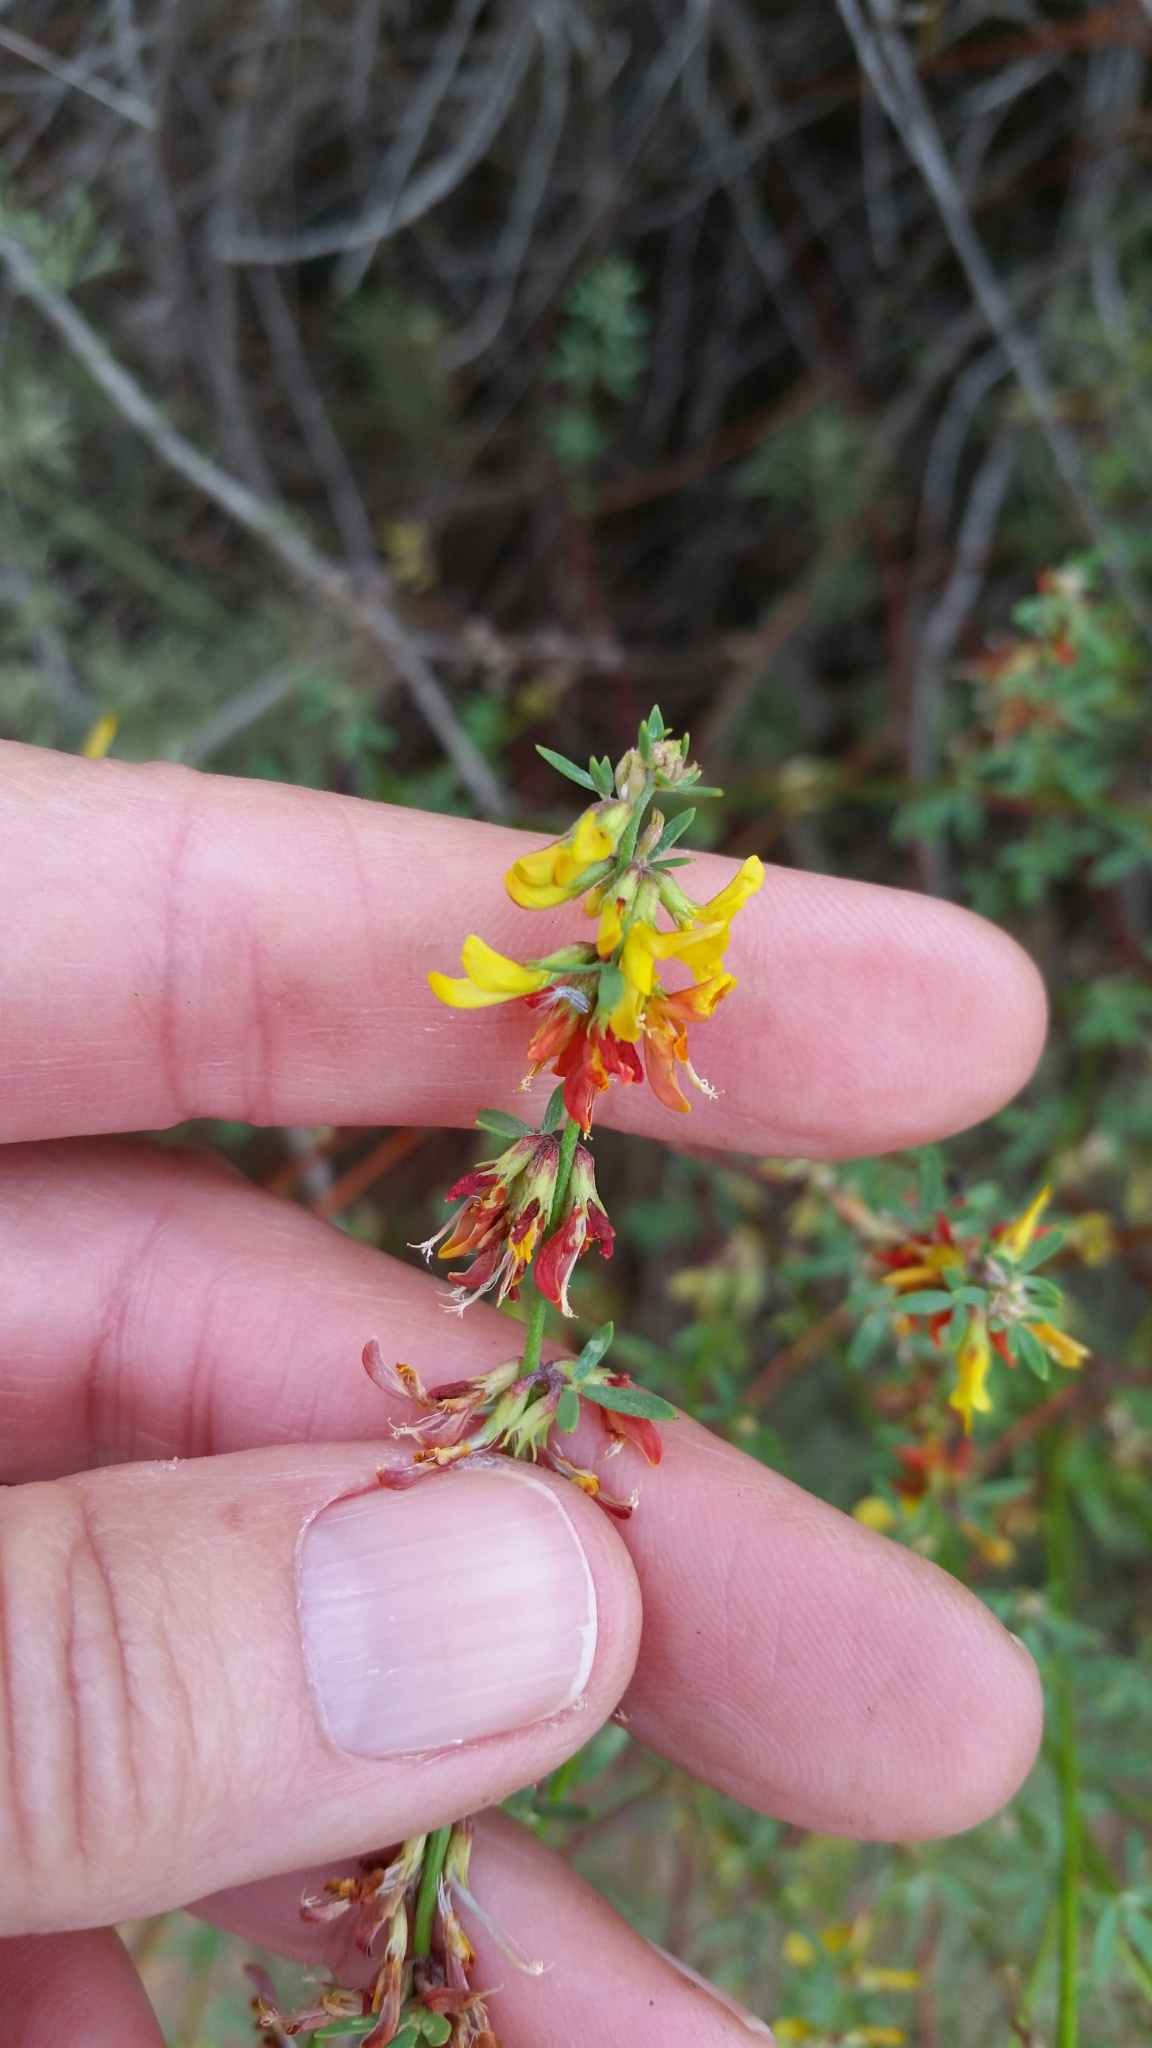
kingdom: Plantae
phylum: Tracheophyta
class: Magnoliopsida
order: Fabales
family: Fabaceae
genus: Acmispon
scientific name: Acmispon glaber
